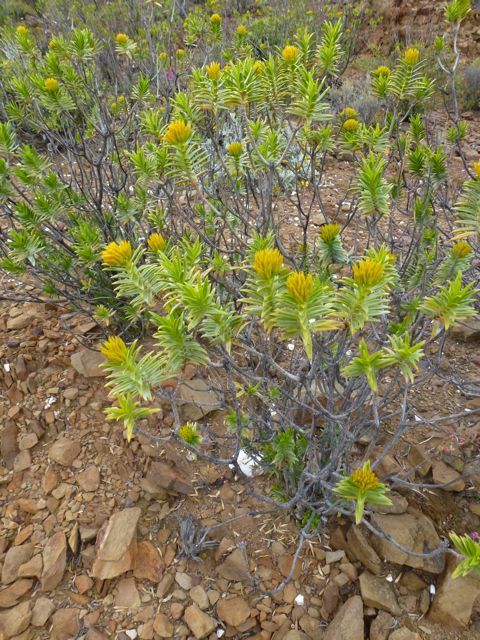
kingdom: Plantae
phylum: Tracheophyta
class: Magnoliopsida
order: Asterales
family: Asteraceae
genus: Pteronia
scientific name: Pteronia fasciculata
